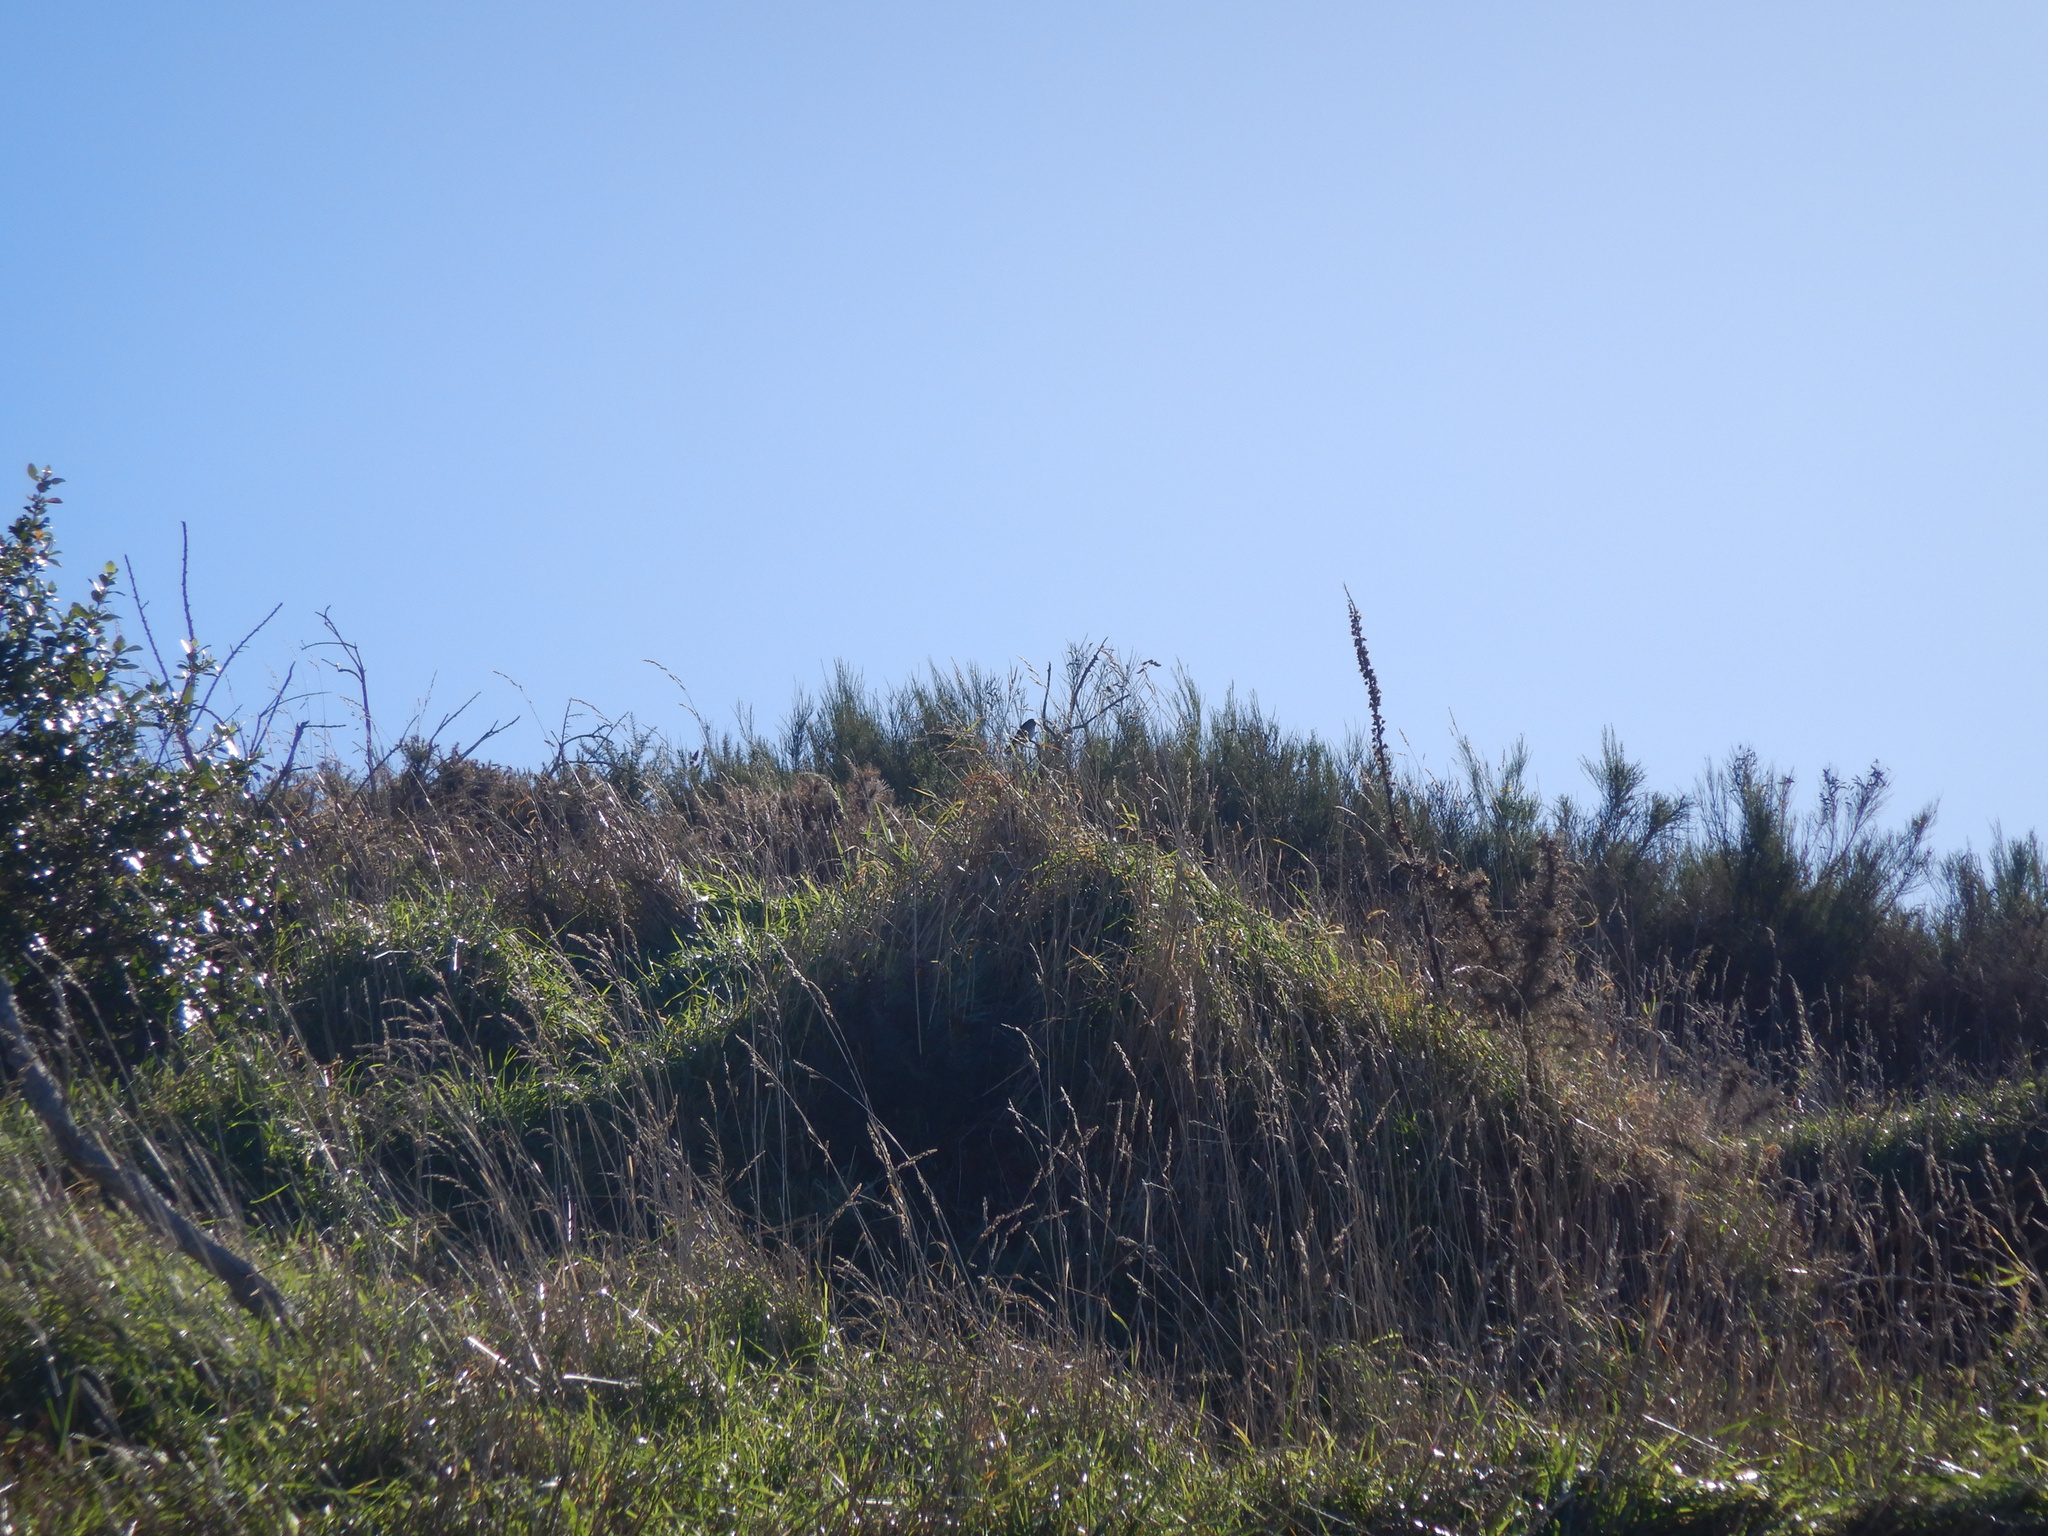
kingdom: Animalia
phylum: Chordata
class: Aves
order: Passeriformes
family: Hirundinidae
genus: Hirundo
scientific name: Hirundo neoxena
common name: Welcome swallow
